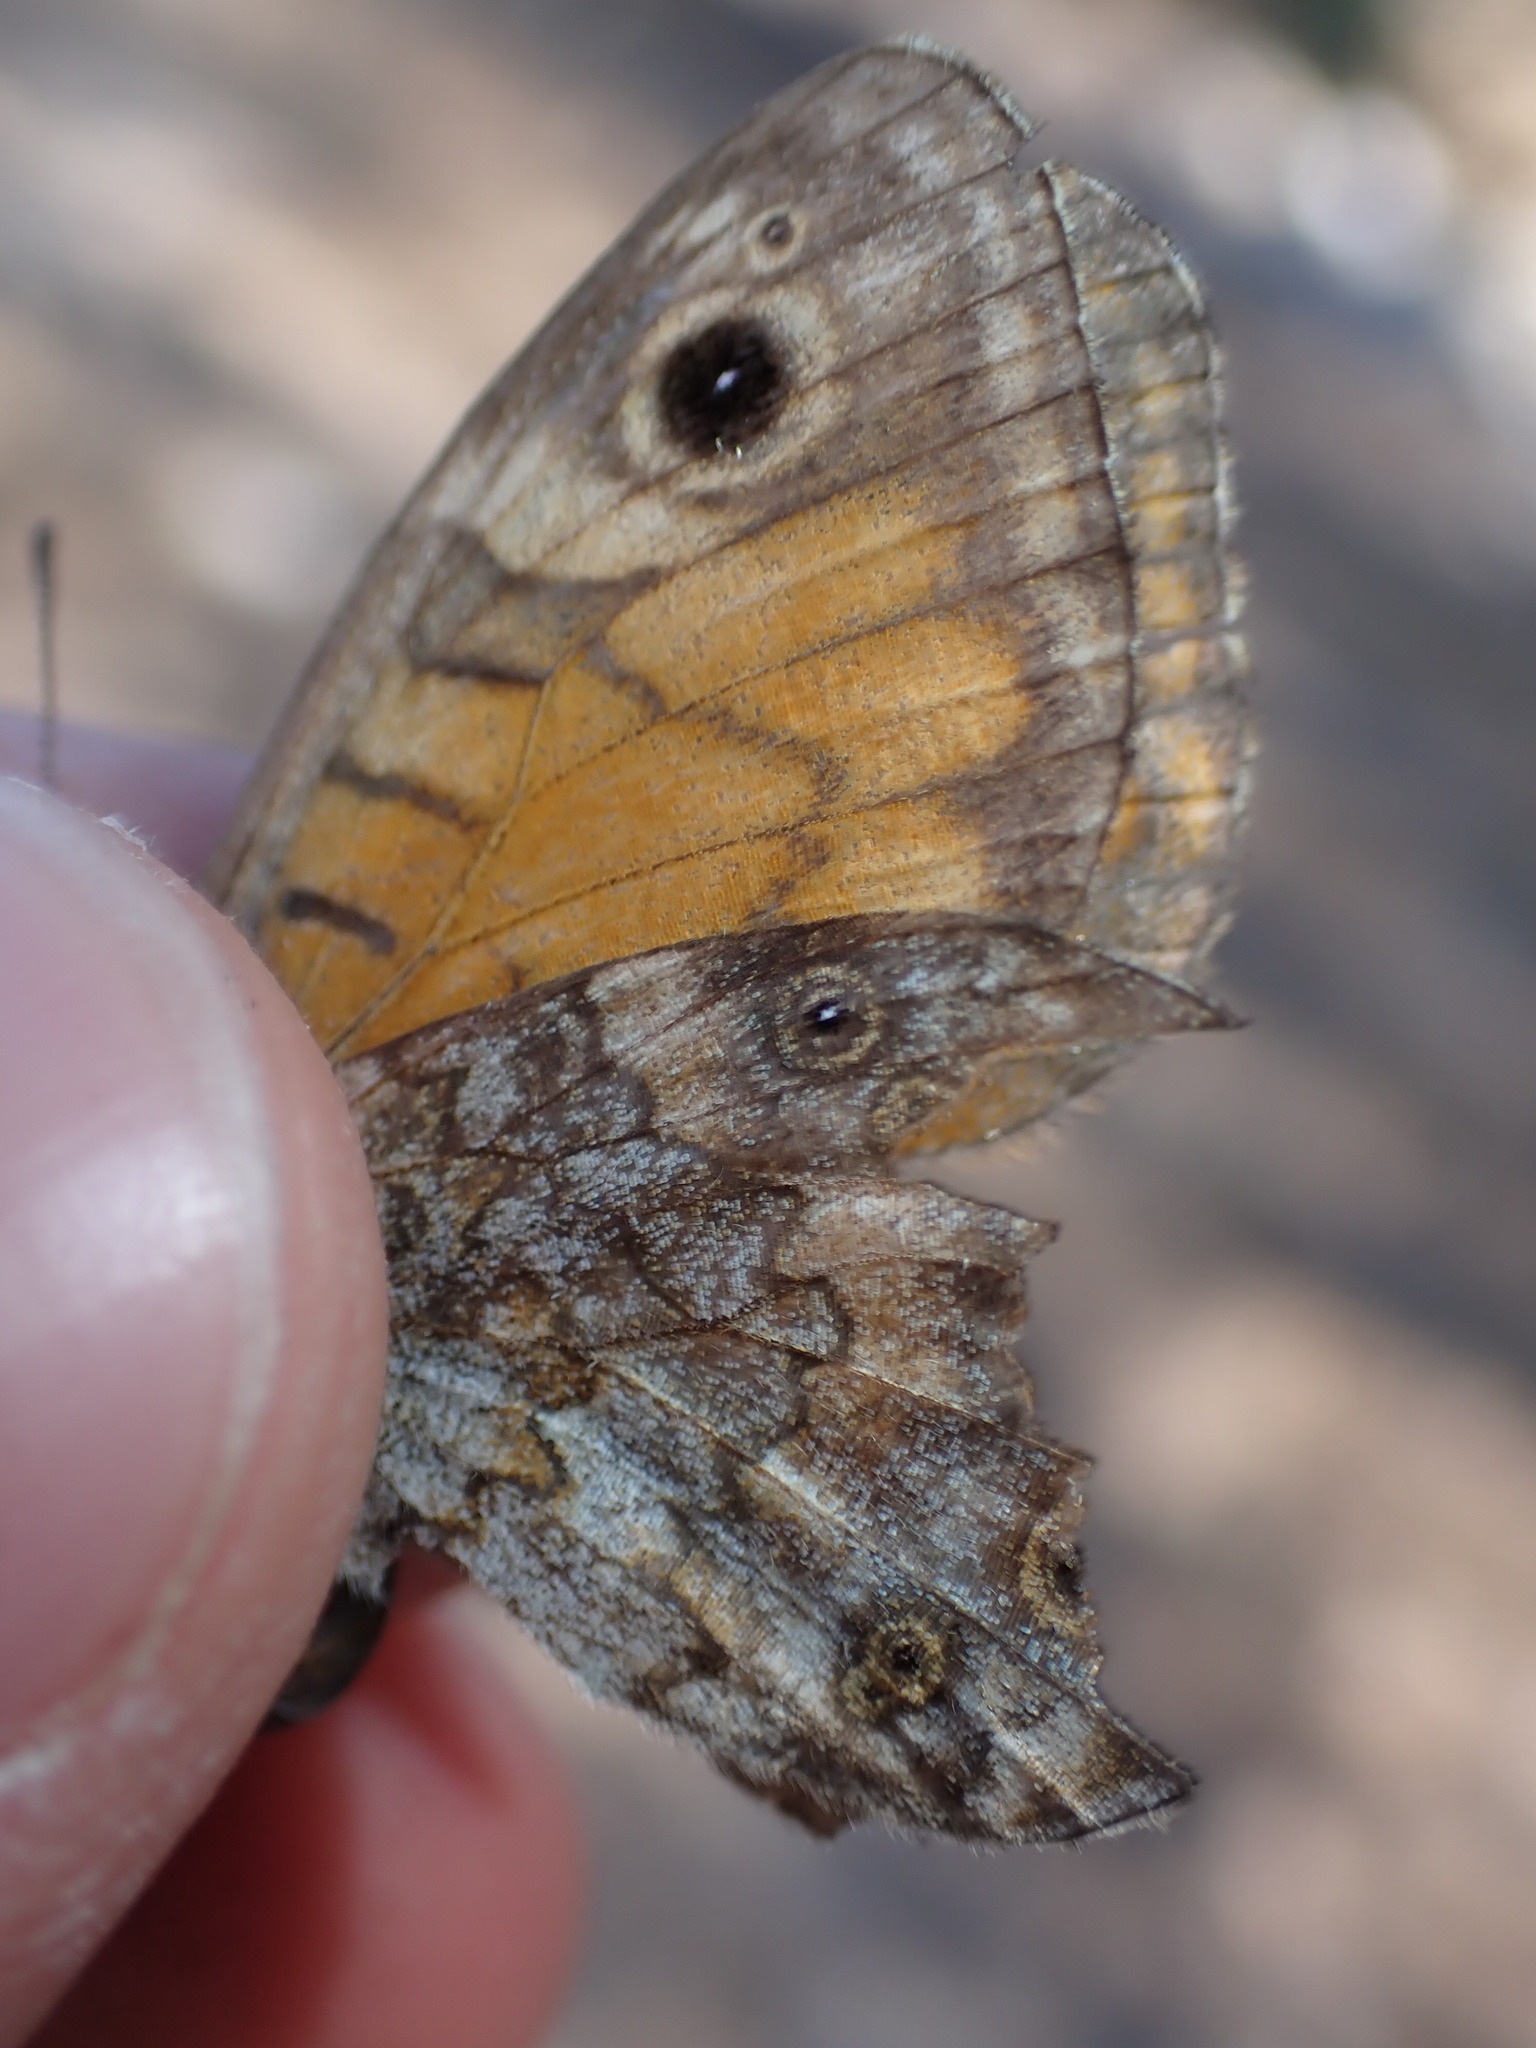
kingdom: Animalia
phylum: Arthropoda
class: Insecta
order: Lepidoptera
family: Nymphalidae
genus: Pararge
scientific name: Pararge Lasiommata megera
